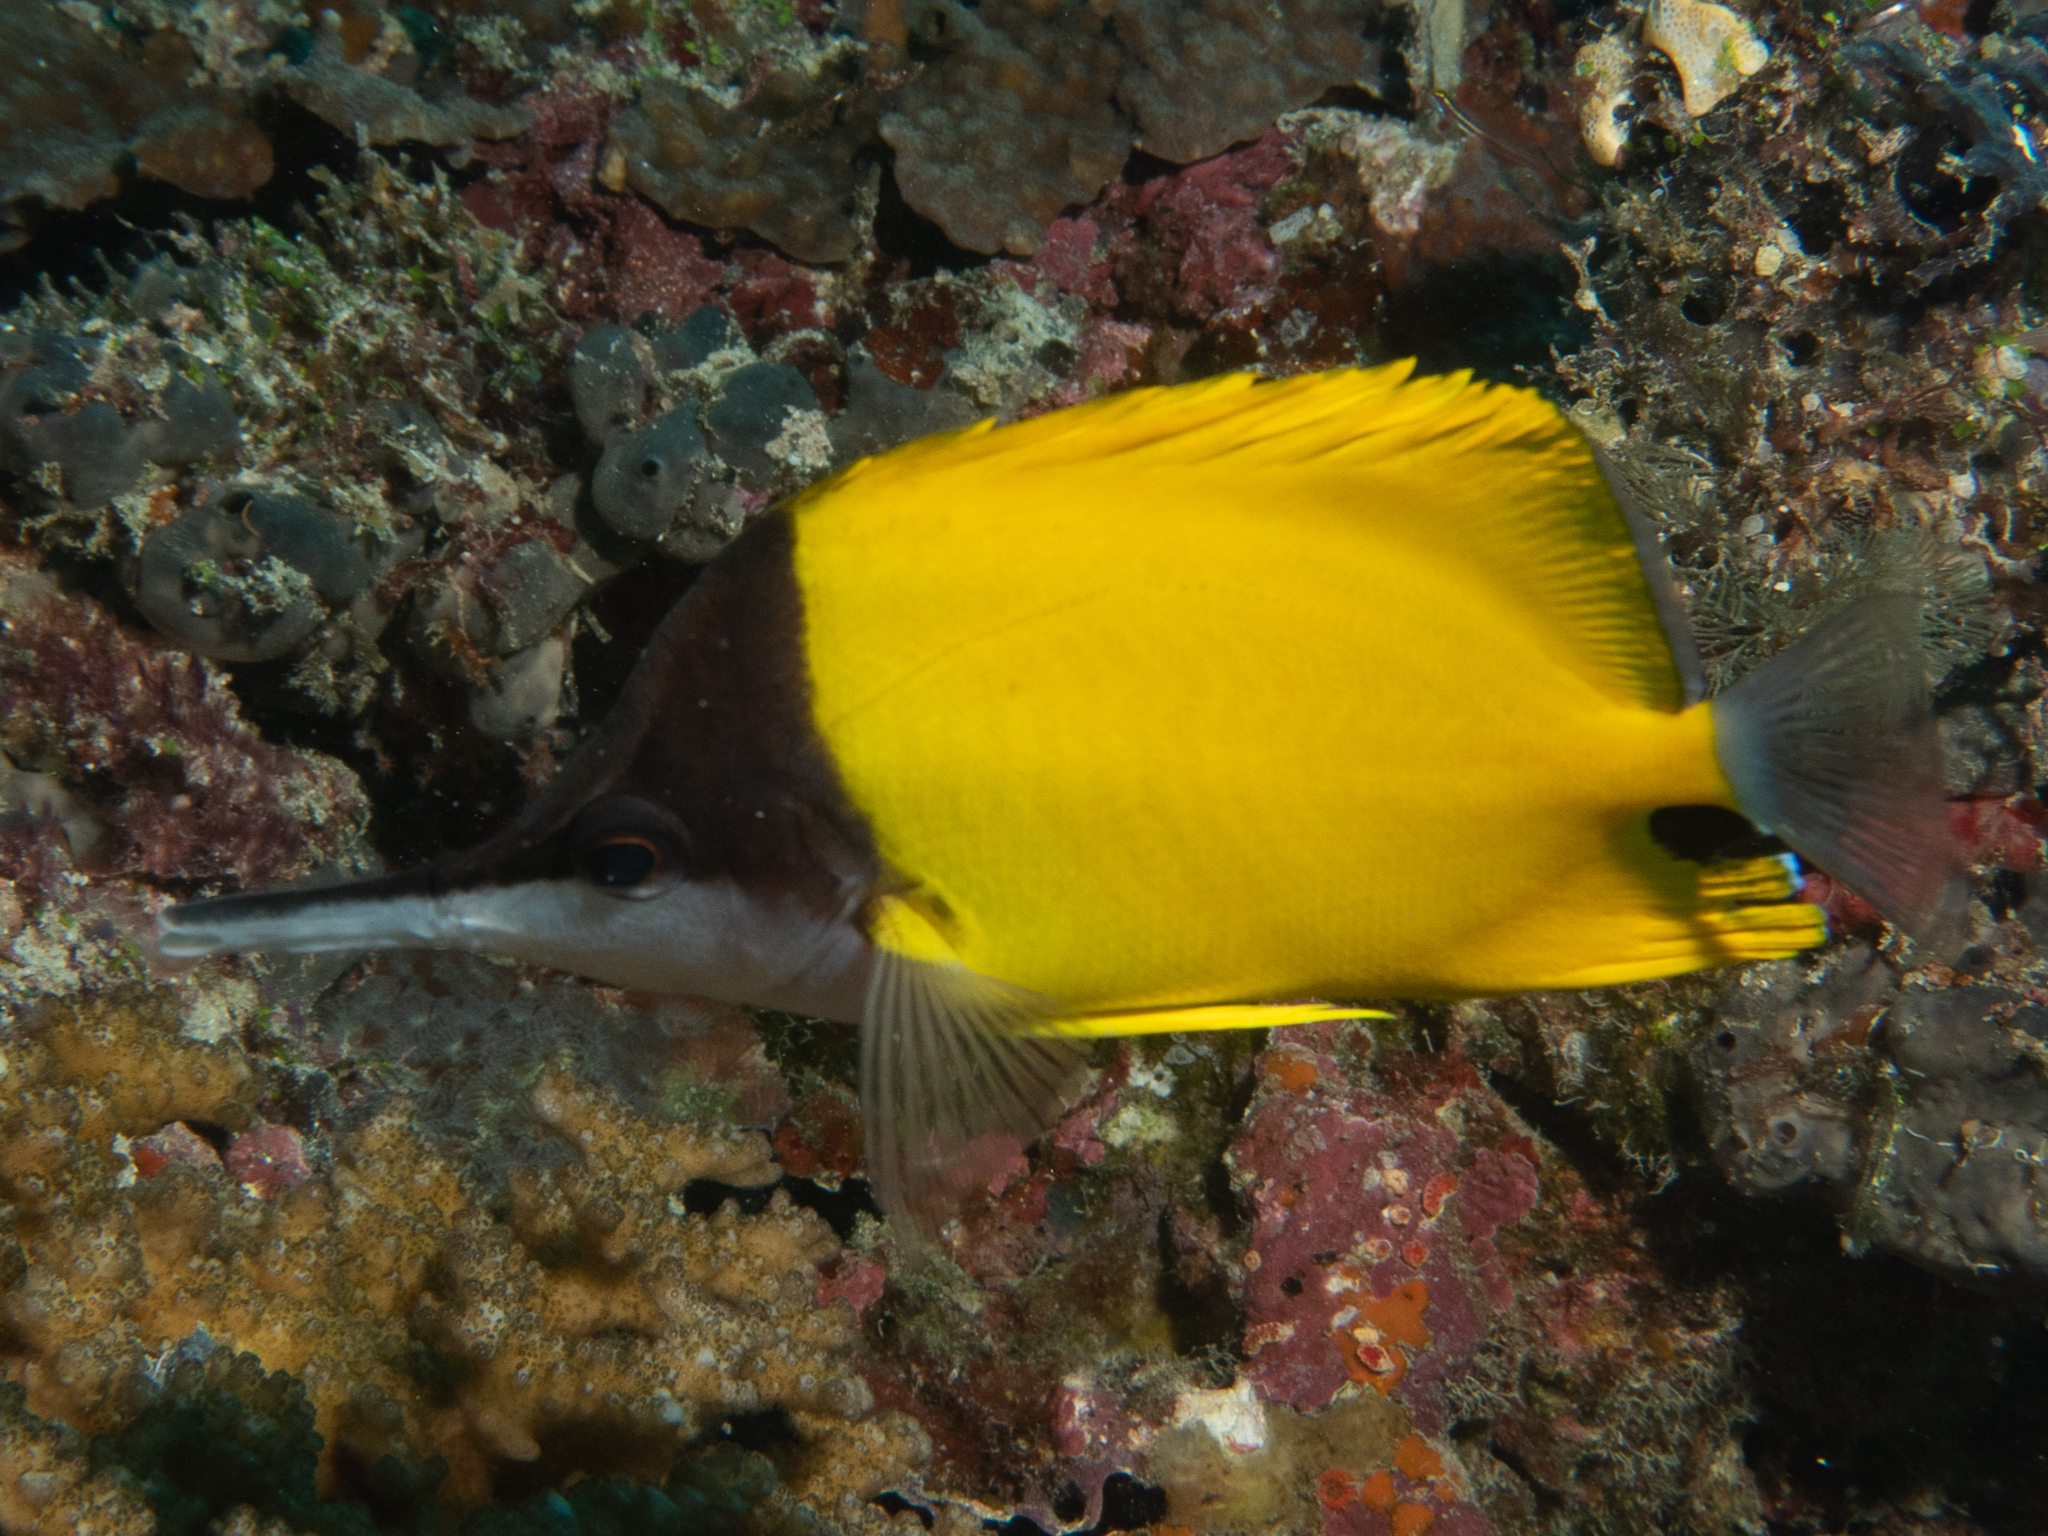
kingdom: Animalia
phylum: Chordata
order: Perciformes
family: Chaetodontidae
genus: Forcipiger
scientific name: Forcipiger flavissimus
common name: Forcepsfish
